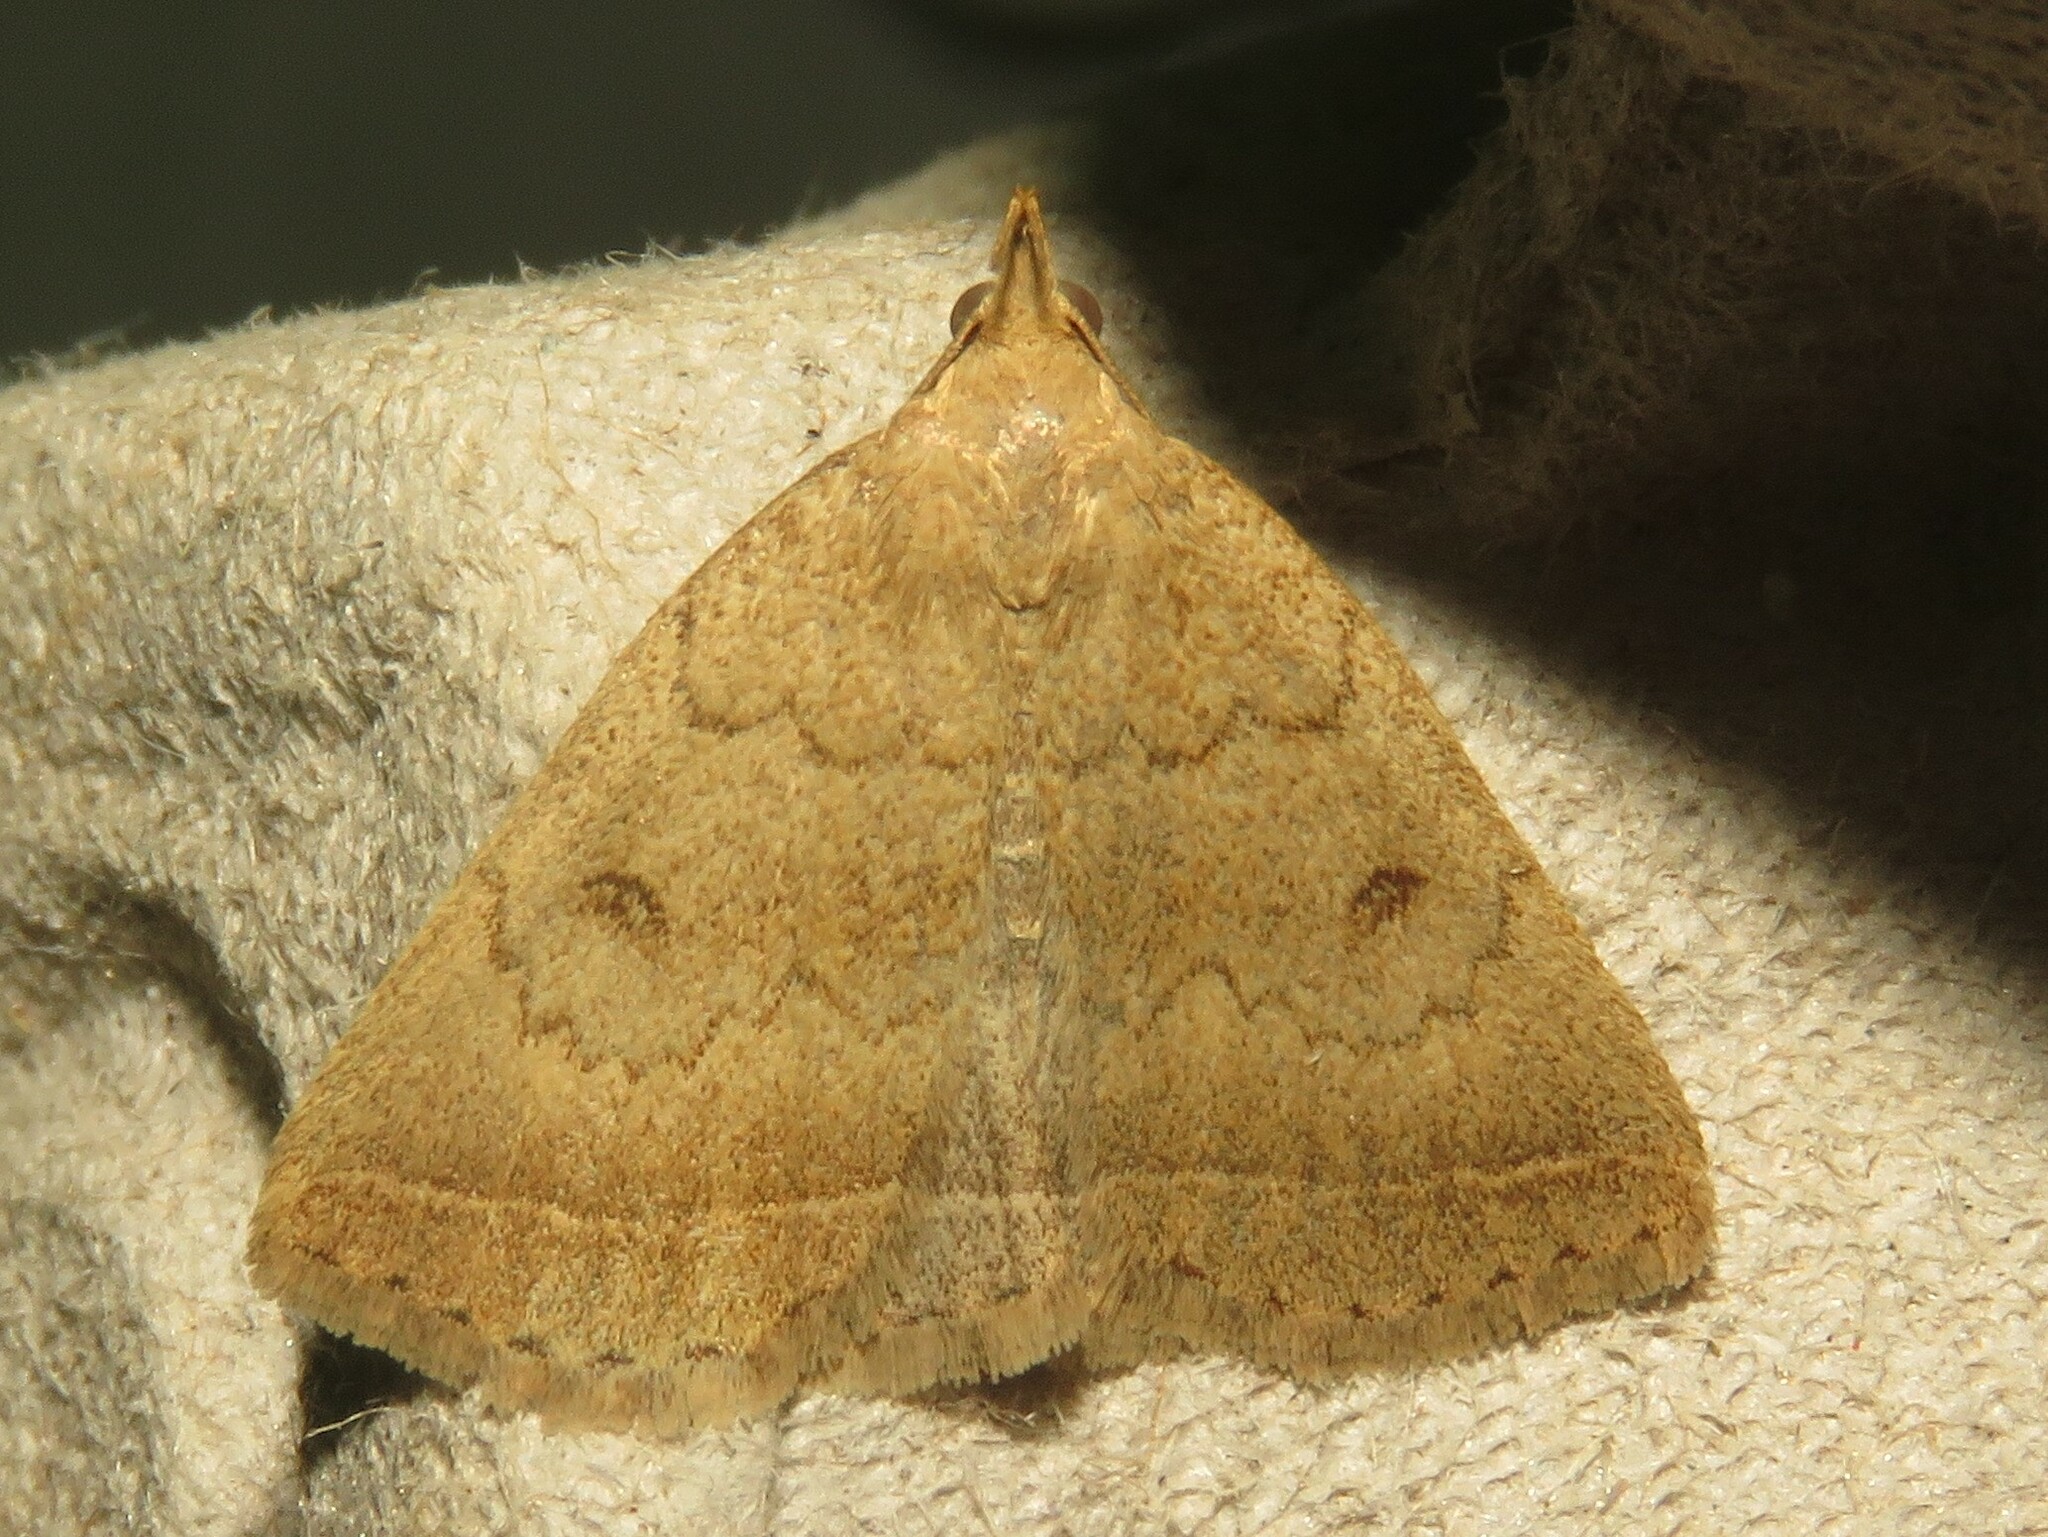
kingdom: Animalia
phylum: Arthropoda
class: Insecta
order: Lepidoptera
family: Erebidae
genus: Zanclognatha
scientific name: Zanclognatha jacchusalis
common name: Yellowish zanclognatha
